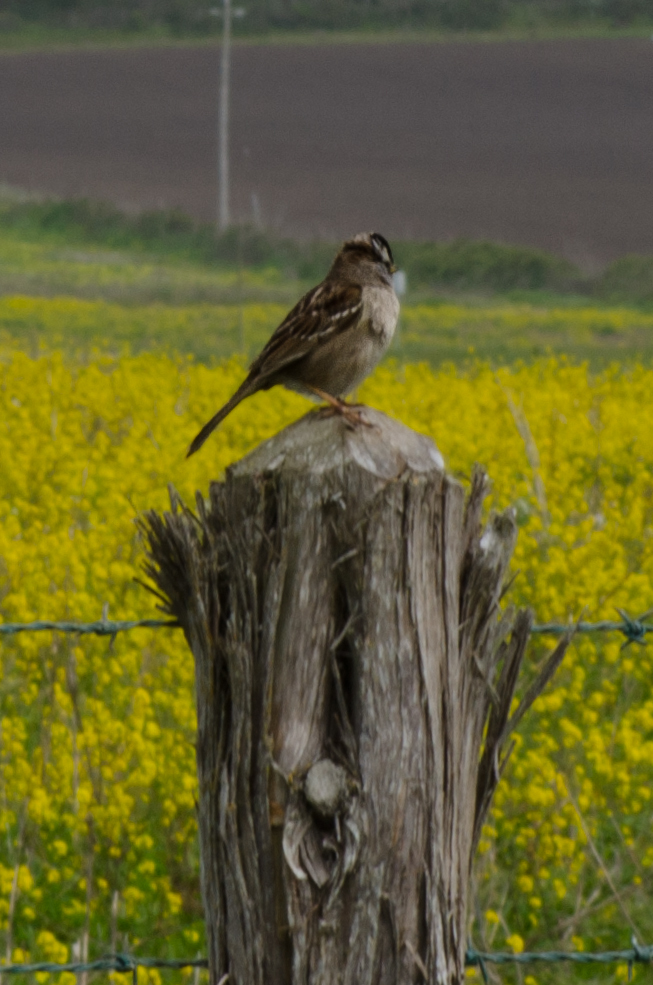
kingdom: Animalia
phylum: Chordata
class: Aves
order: Passeriformes
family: Passerellidae
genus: Zonotrichia
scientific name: Zonotrichia leucophrys
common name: White-crowned sparrow
